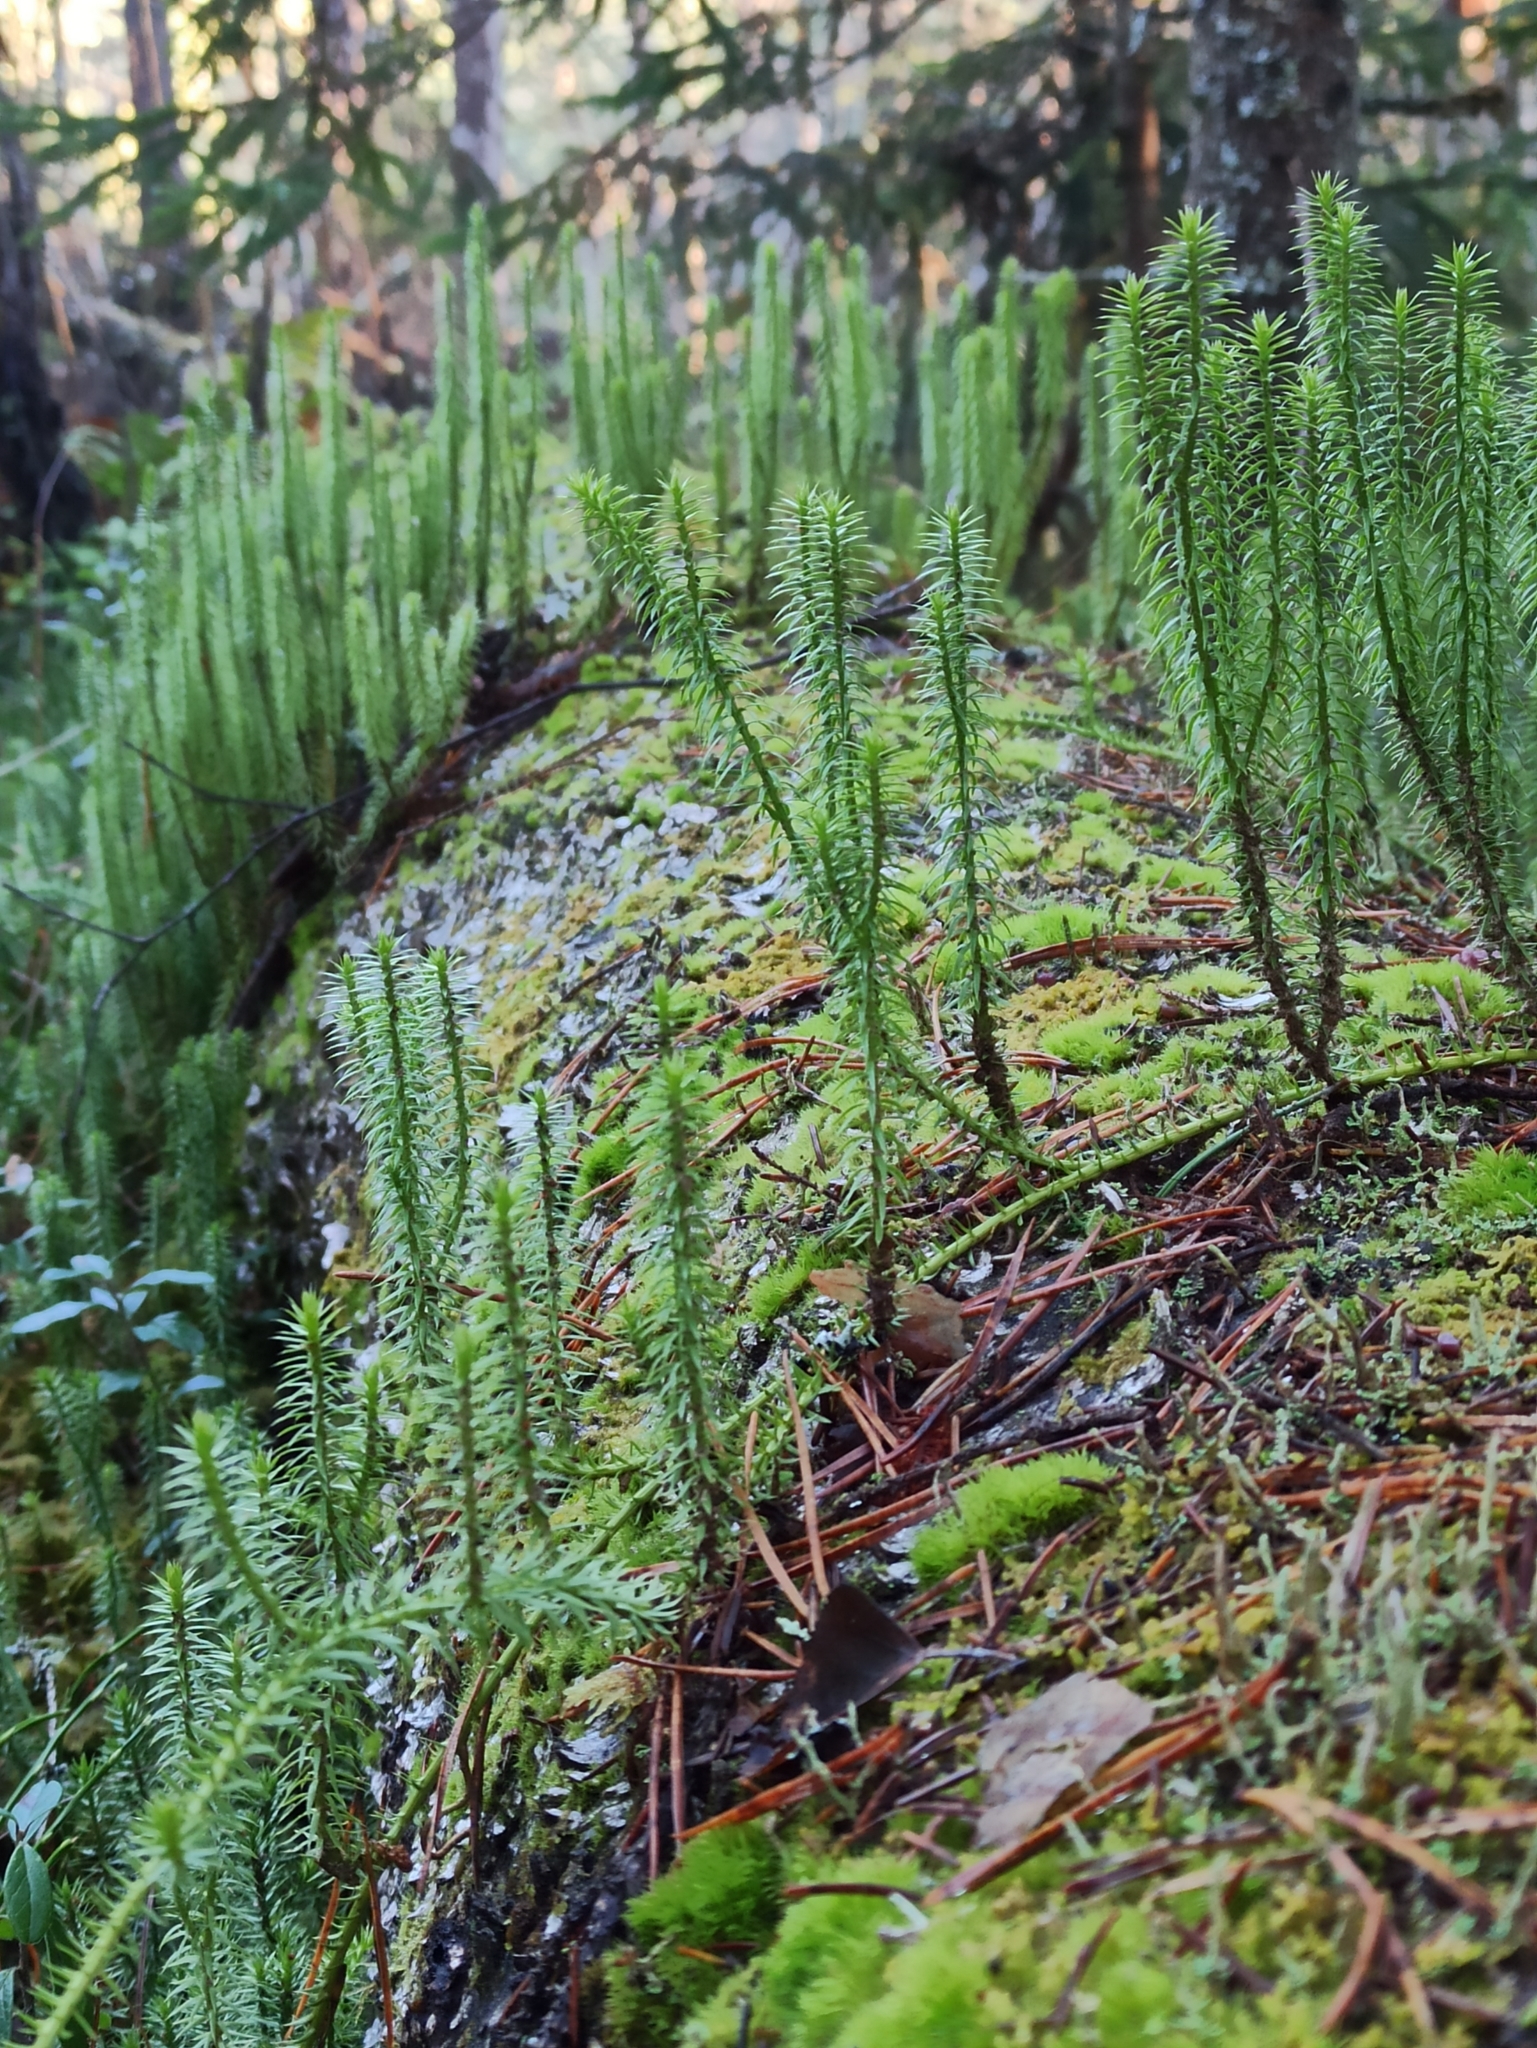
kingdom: Plantae
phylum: Tracheophyta
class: Lycopodiopsida
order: Lycopodiales
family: Lycopodiaceae
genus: Spinulum
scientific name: Spinulum annotinum
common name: Interrupted club-moss
